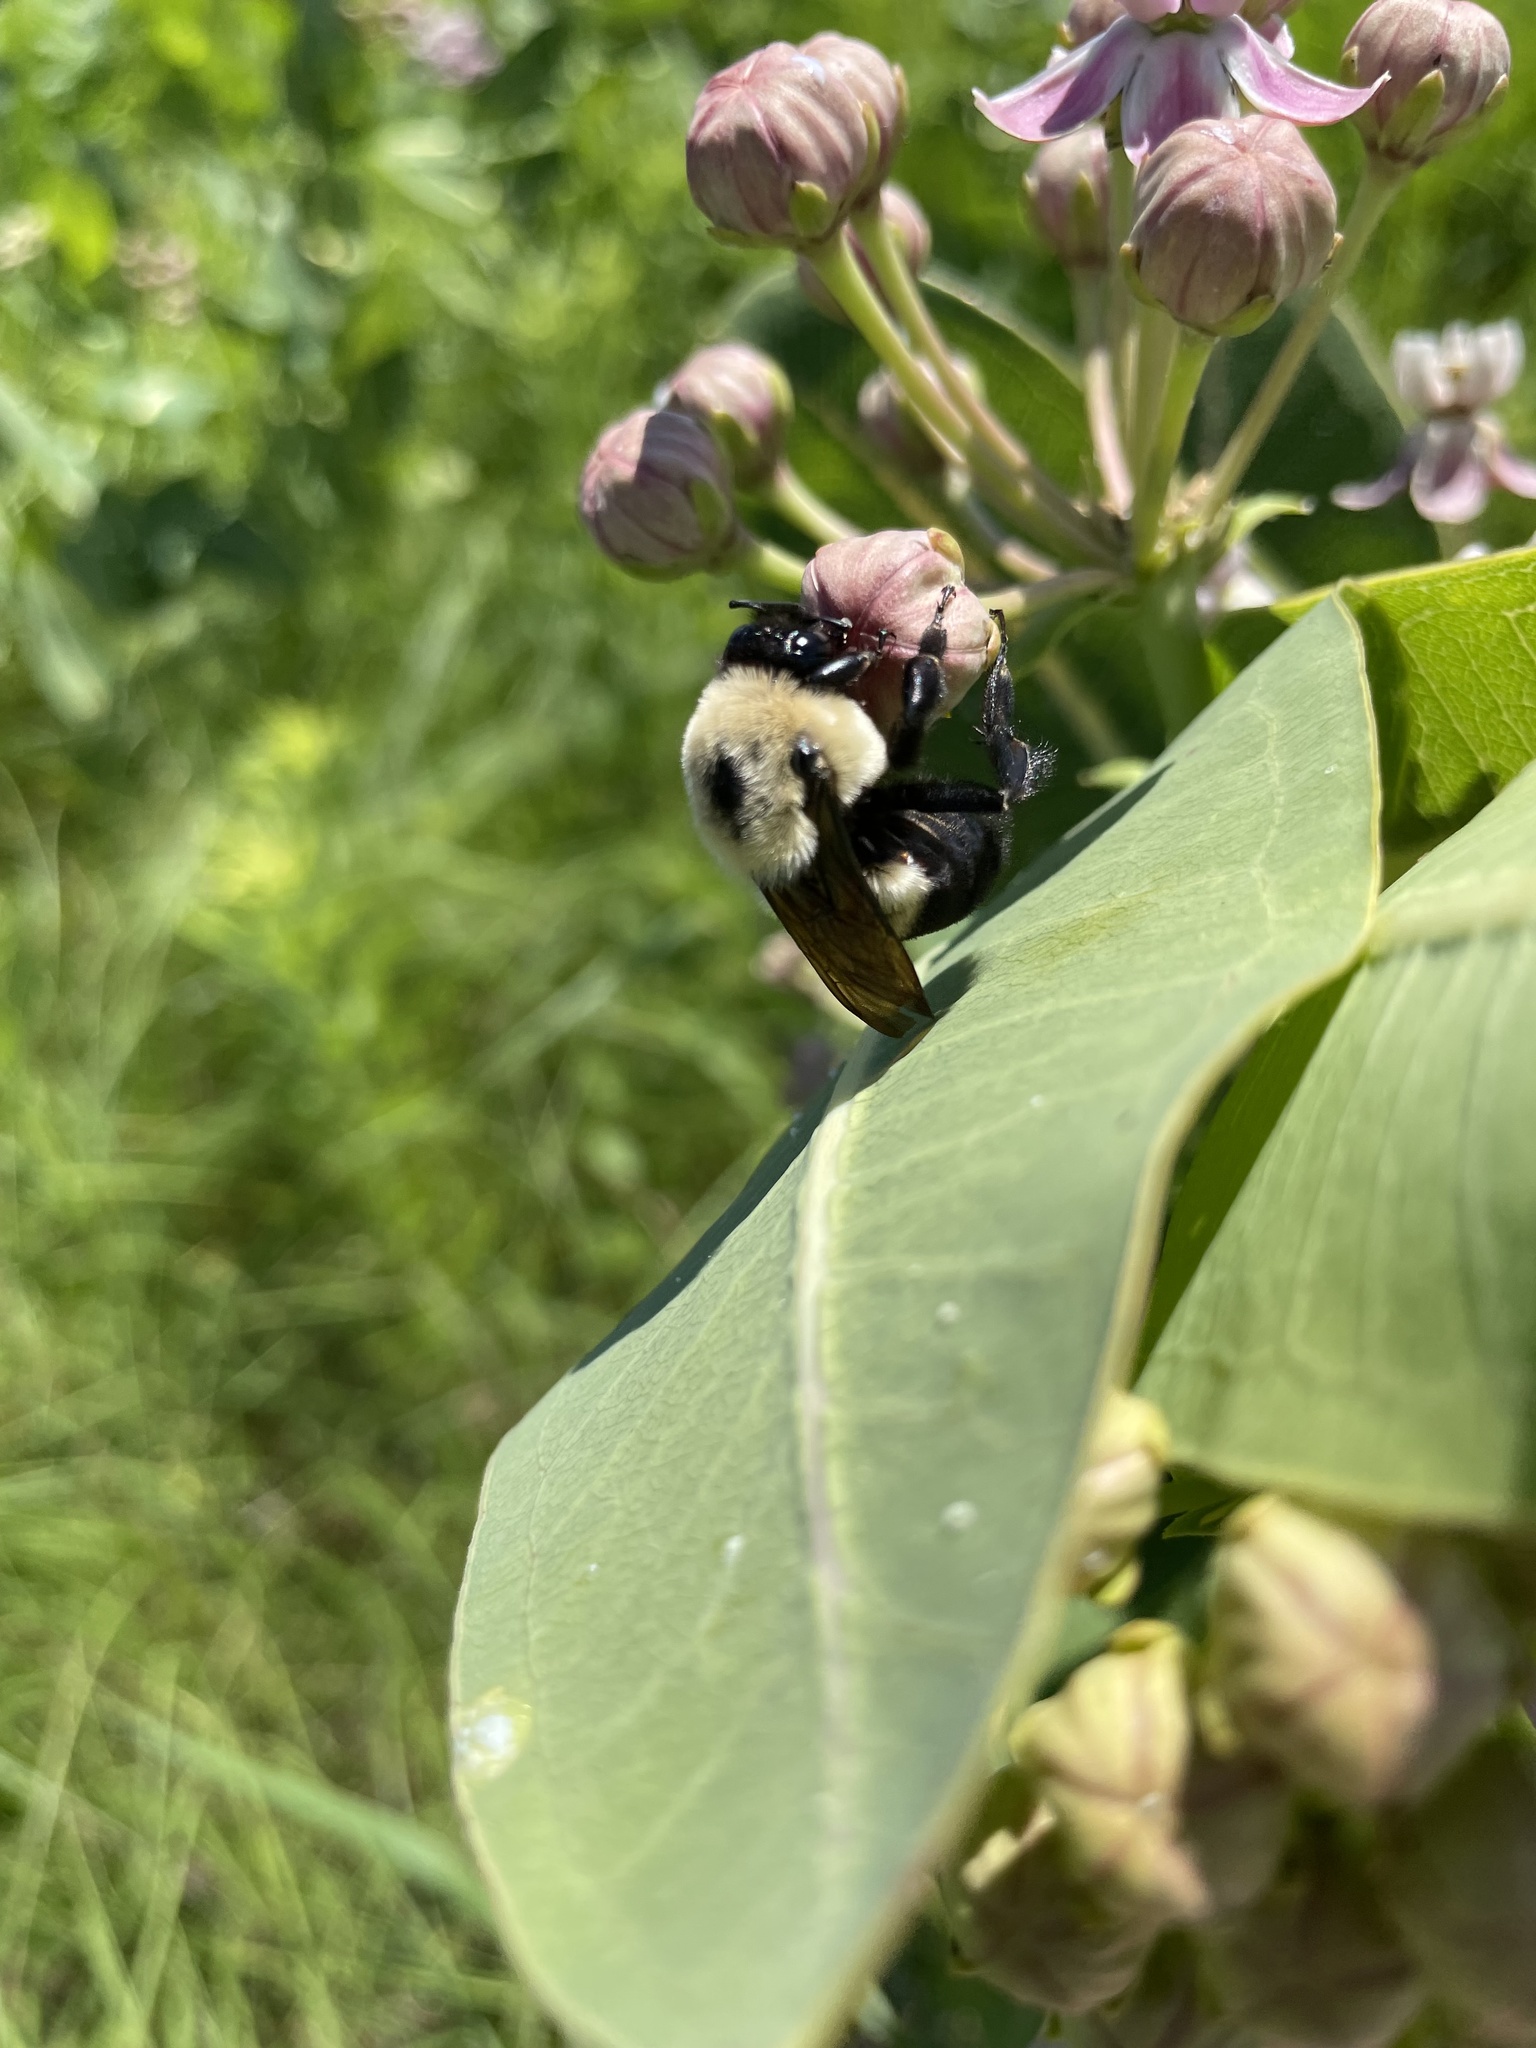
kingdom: Animalia
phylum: Arthropoda
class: Insecta
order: Hymenoptera
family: Apidae
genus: Bombus
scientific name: Bombus griseocollis
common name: Brown-belted bumble bee
